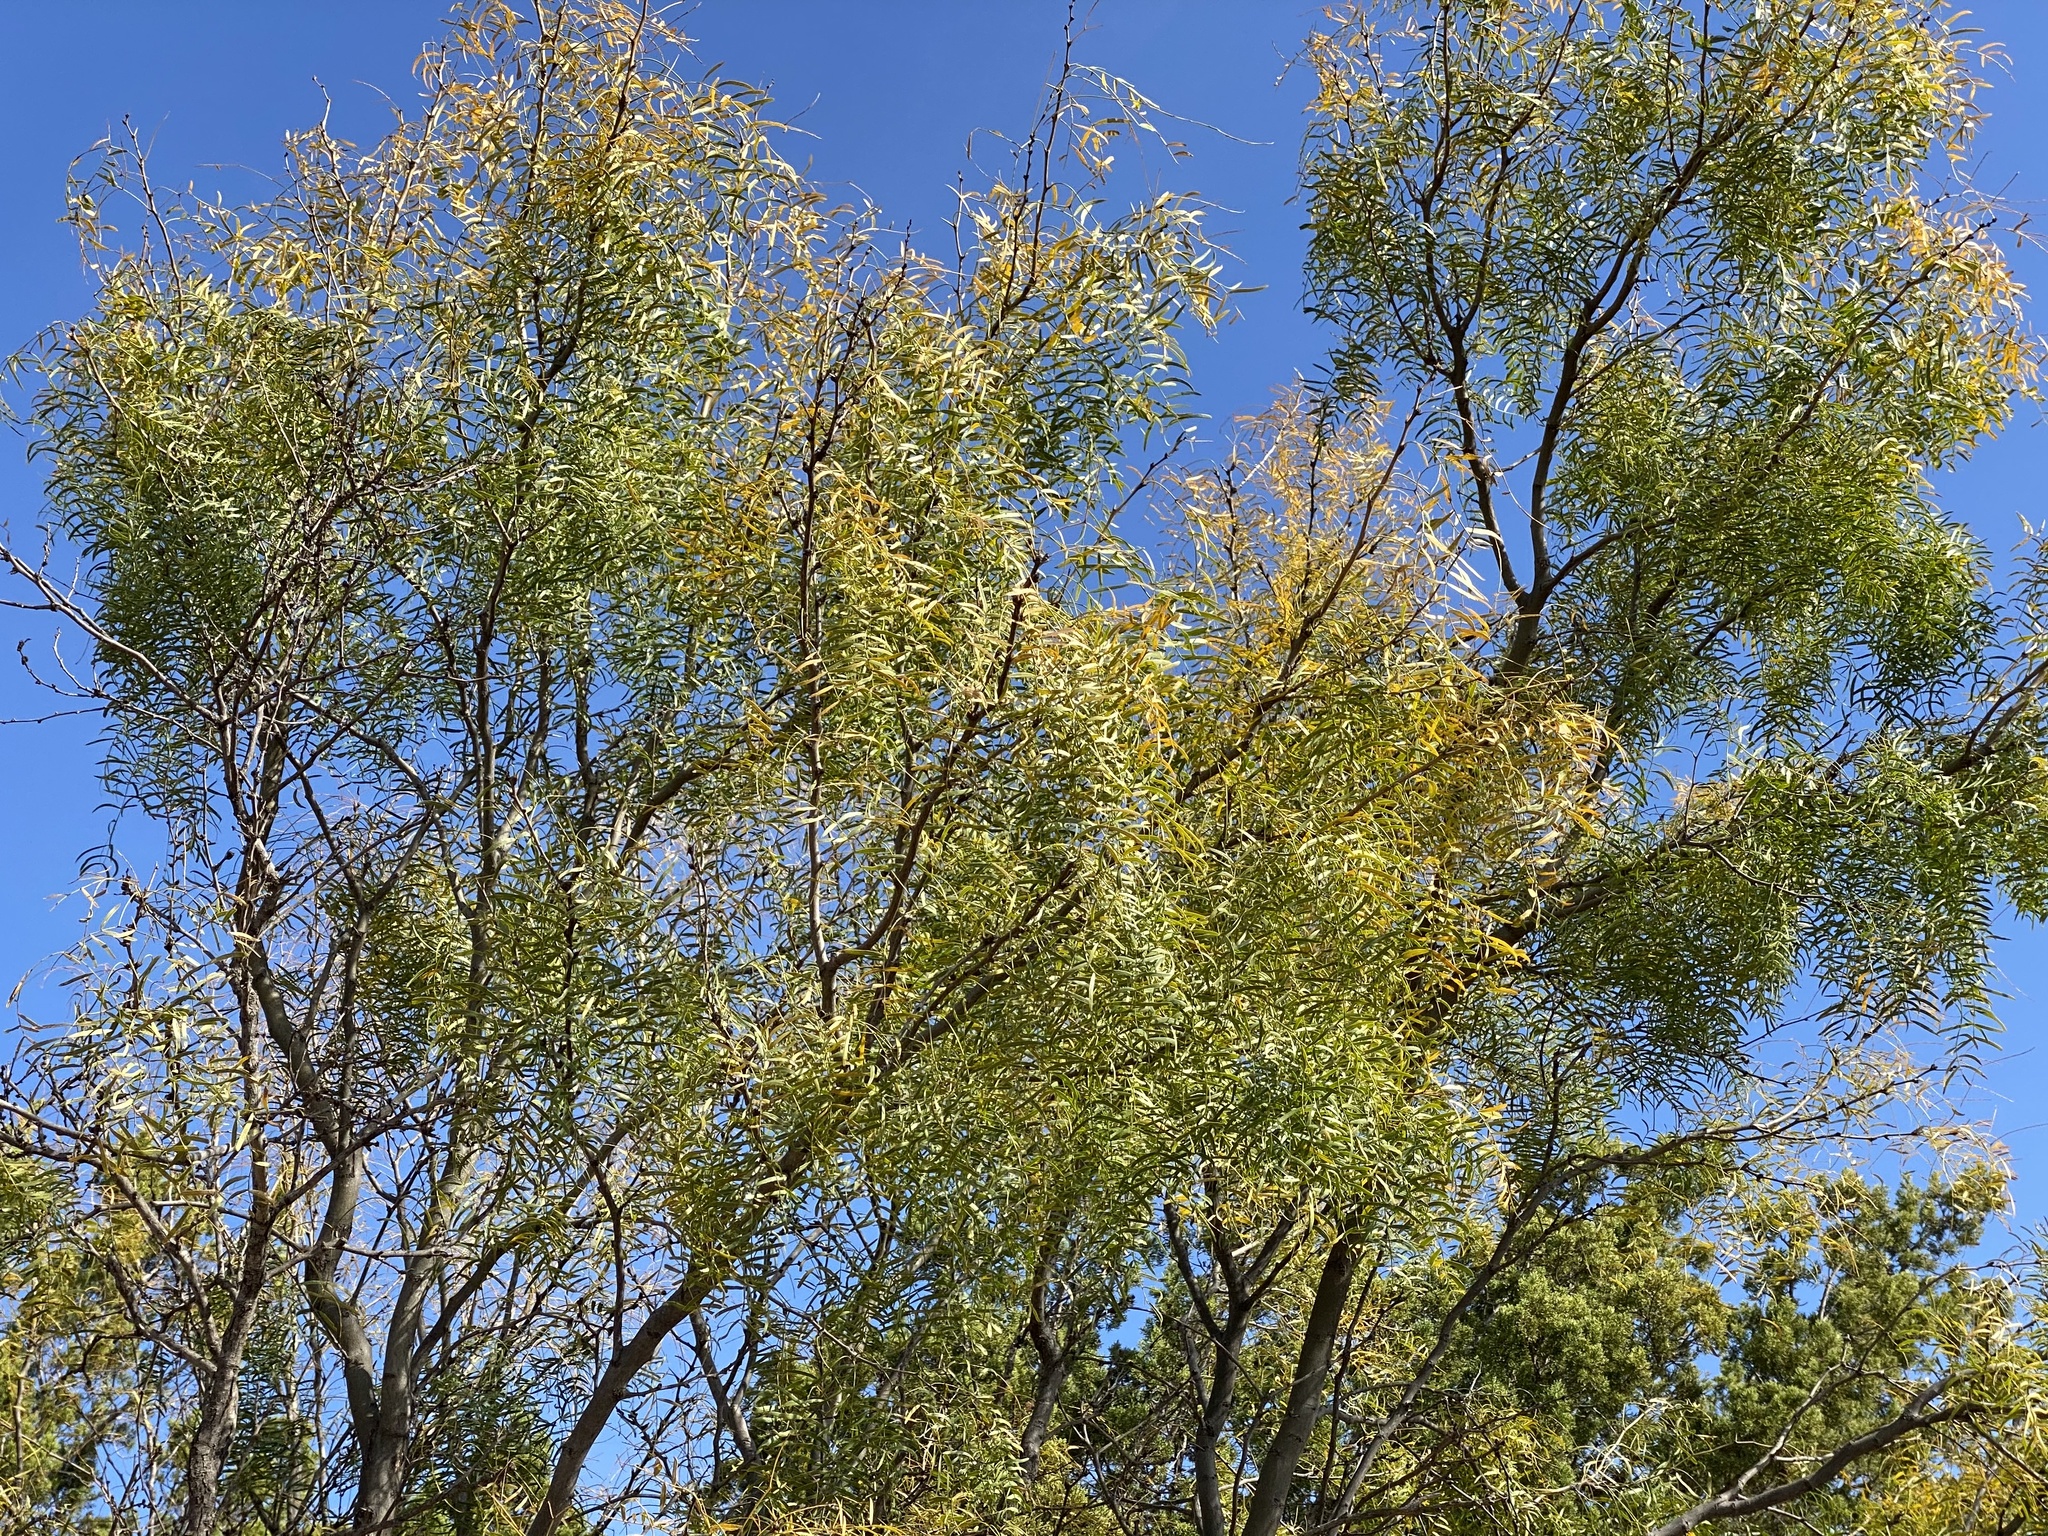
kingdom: Plantae
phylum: Tracheophyta
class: Magnoliopsida
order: Fabales
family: Fabaceae
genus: Prosopis
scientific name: Prosopis glandulosa
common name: Honey mesquite
